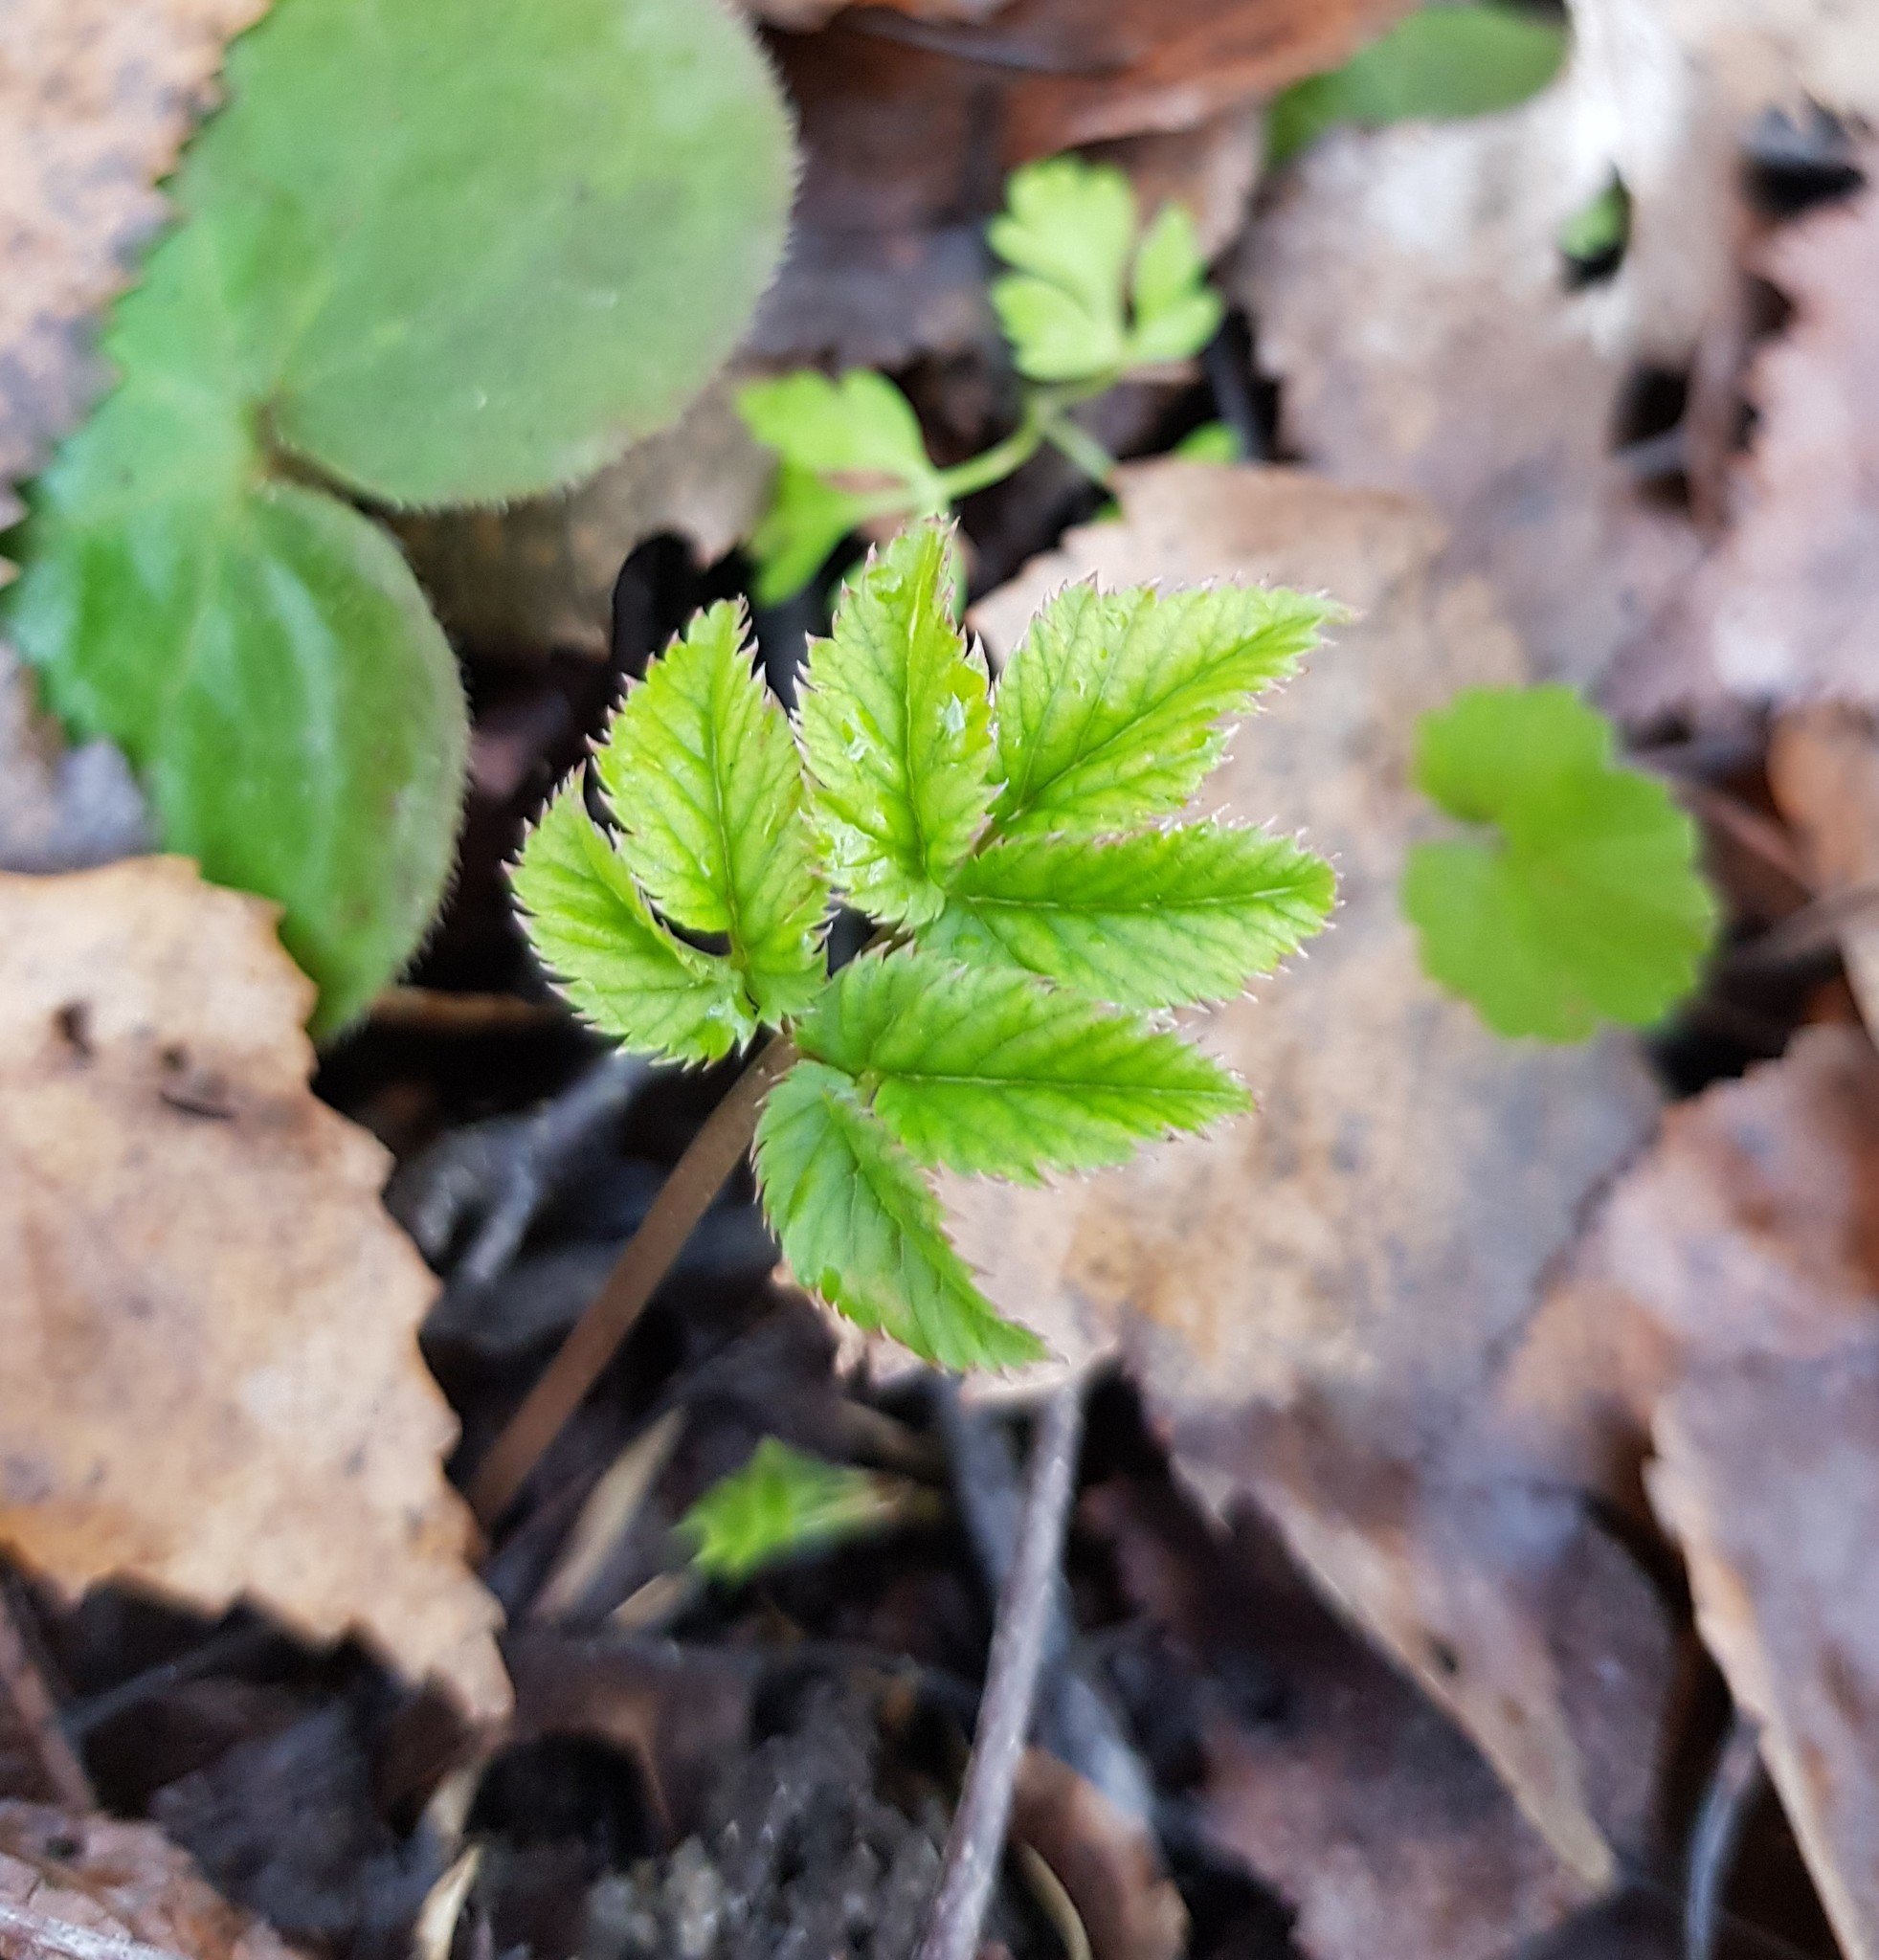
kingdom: Plantae
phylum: Tracheophyta
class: Magnoliopsida
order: Apiales
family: Apiaceae
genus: Aegopodium
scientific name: Aegopodium podagraria
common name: Ground-elder
